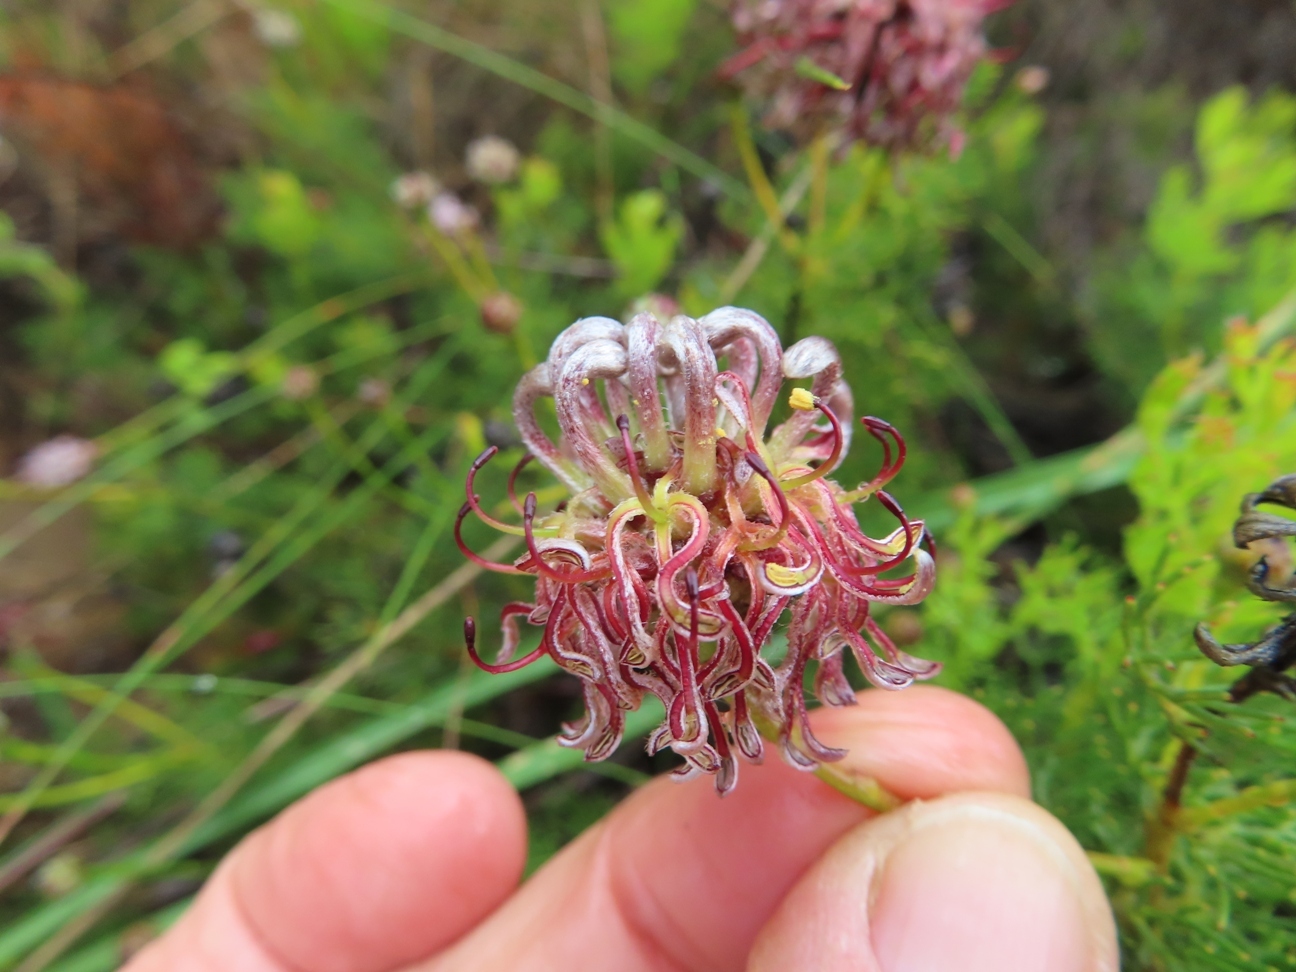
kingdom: Plantae
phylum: Tracheophyta
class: Magnoliopsida
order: Proteales
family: Proteaceae
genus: Serruria
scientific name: Serruria gremialis
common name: Riviersonderend spiderhead
